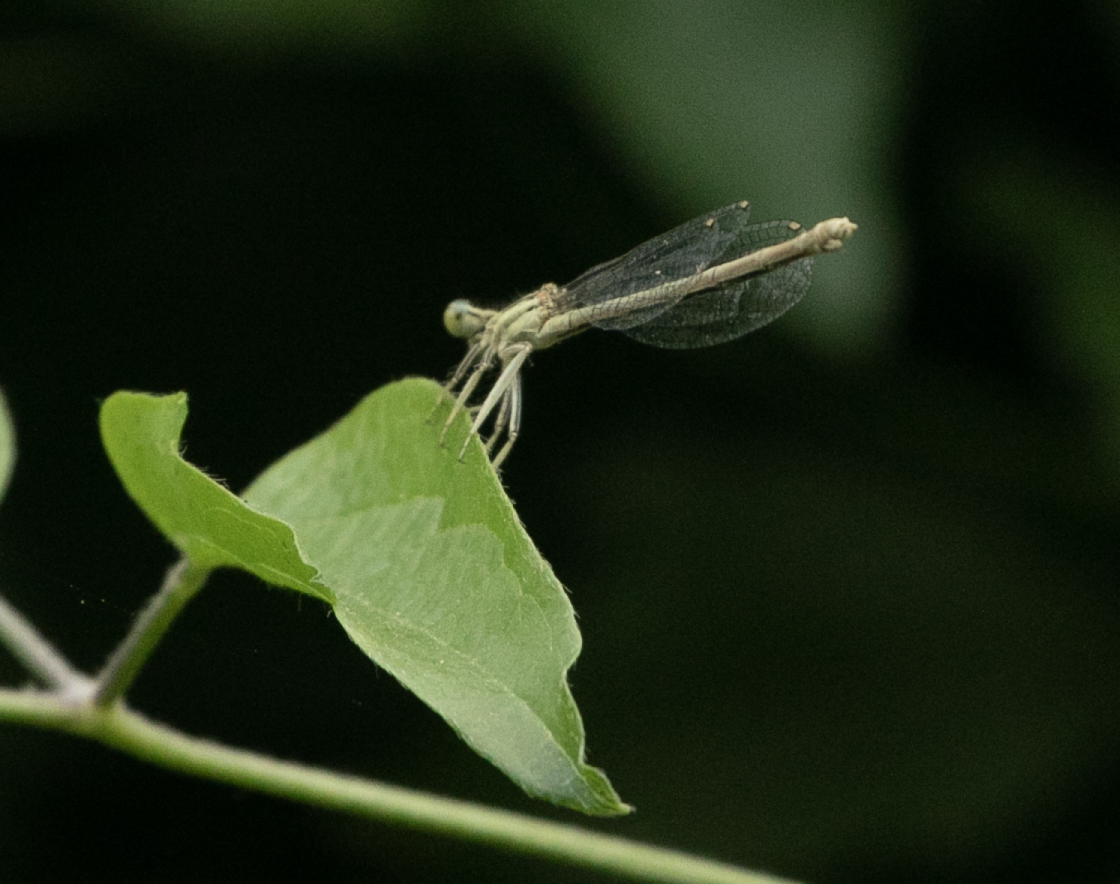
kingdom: Animalia
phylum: Arthropoda
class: Insecta
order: Odonata
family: Platycnemididae
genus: Platycnemis
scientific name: Platycnemis pennipes
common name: White-legged damselfly
